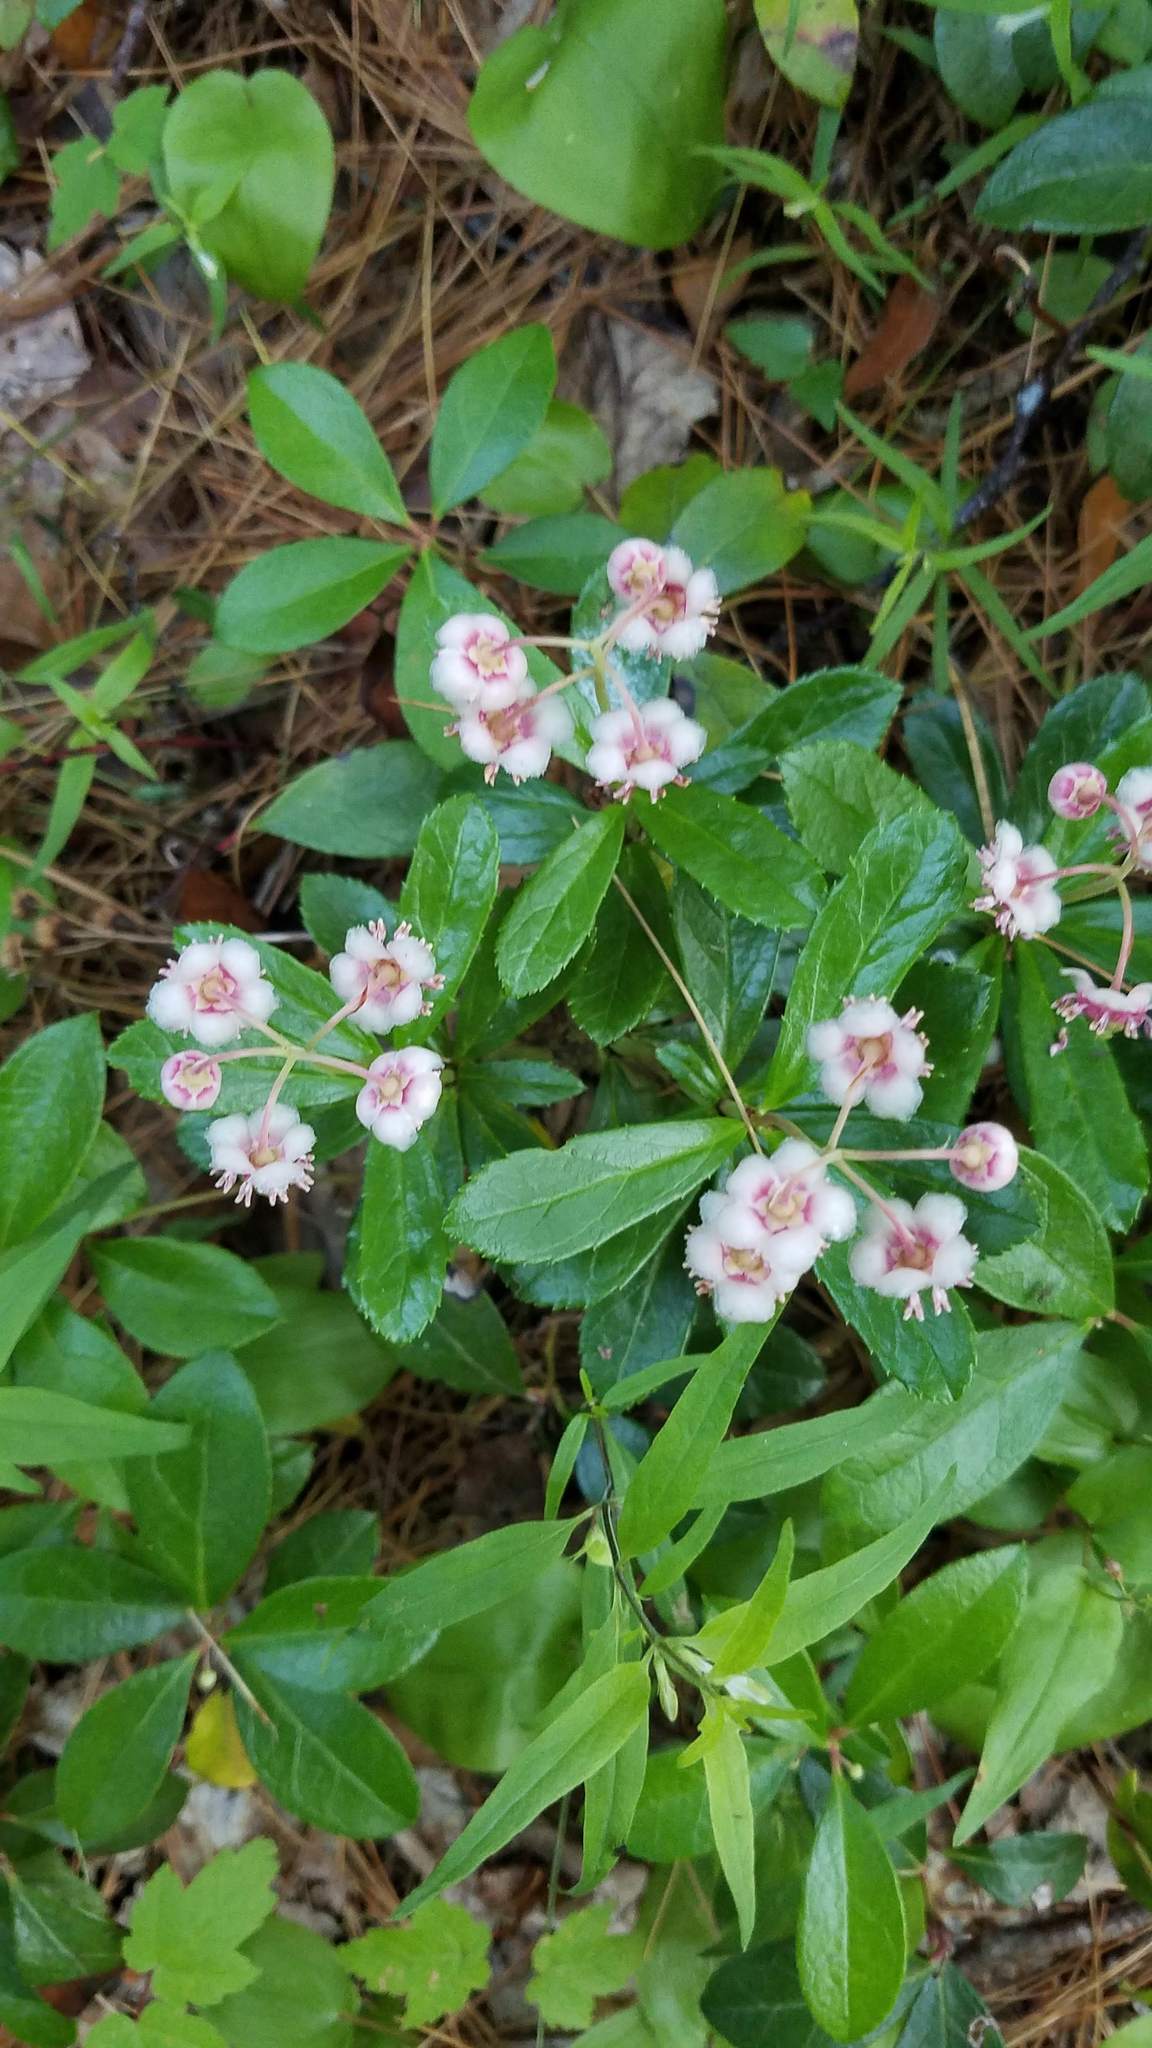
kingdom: Plantae
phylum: Tracheophyta
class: Magnoliopsida
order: Ericales
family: Ericaceae
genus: Chimaphila
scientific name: Chimaphila umbellata
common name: Pipsissewa
